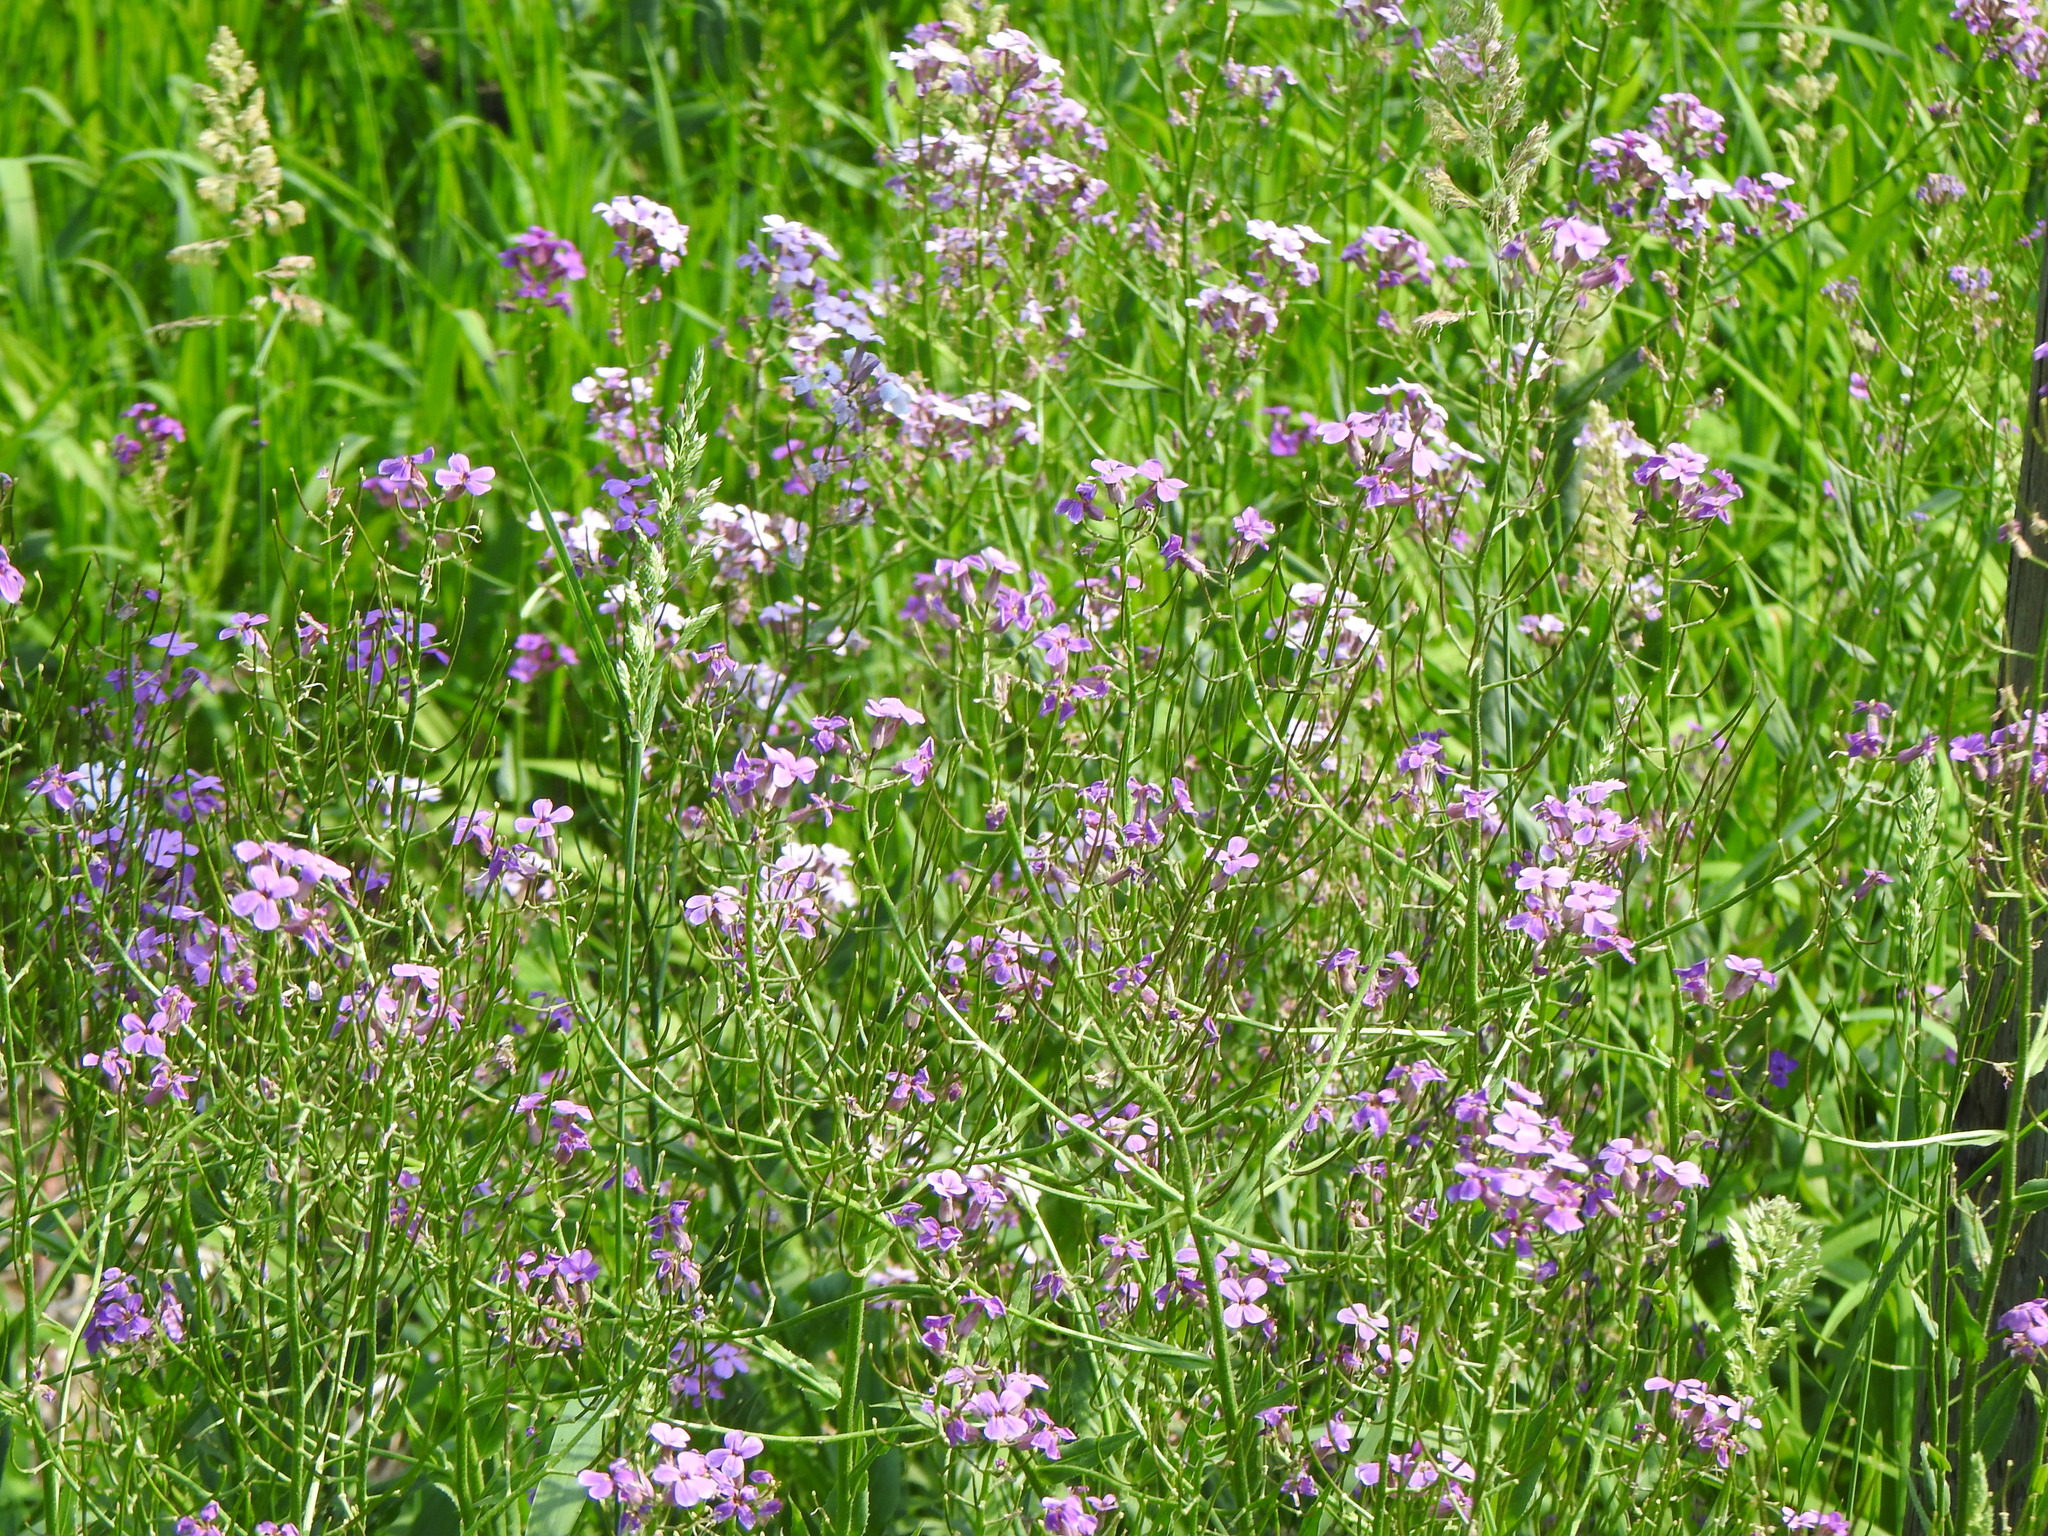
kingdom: Plantae
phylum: Tracheophyta
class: Magnoliopsida
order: Brassicales
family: Brassicaceae
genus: Hesperis
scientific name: Hesperis matronalis
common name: Dame's-violet
